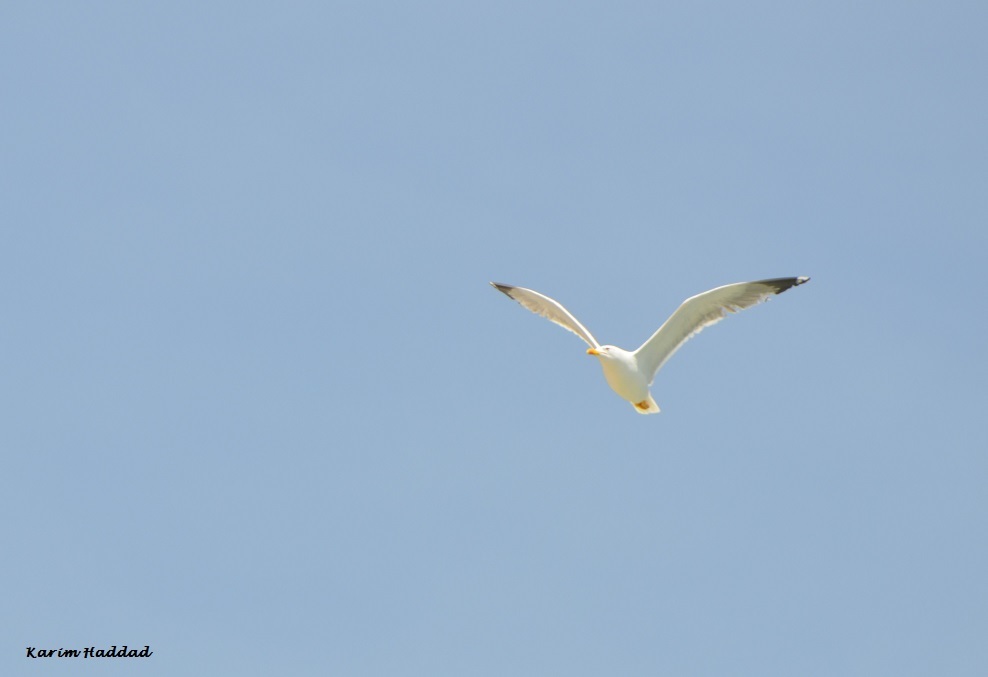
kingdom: Animalia
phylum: Chordata
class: Aves
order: Charadriiformes
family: Laridae
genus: Larus
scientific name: Larus michahellis
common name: Yellow-legged gull
